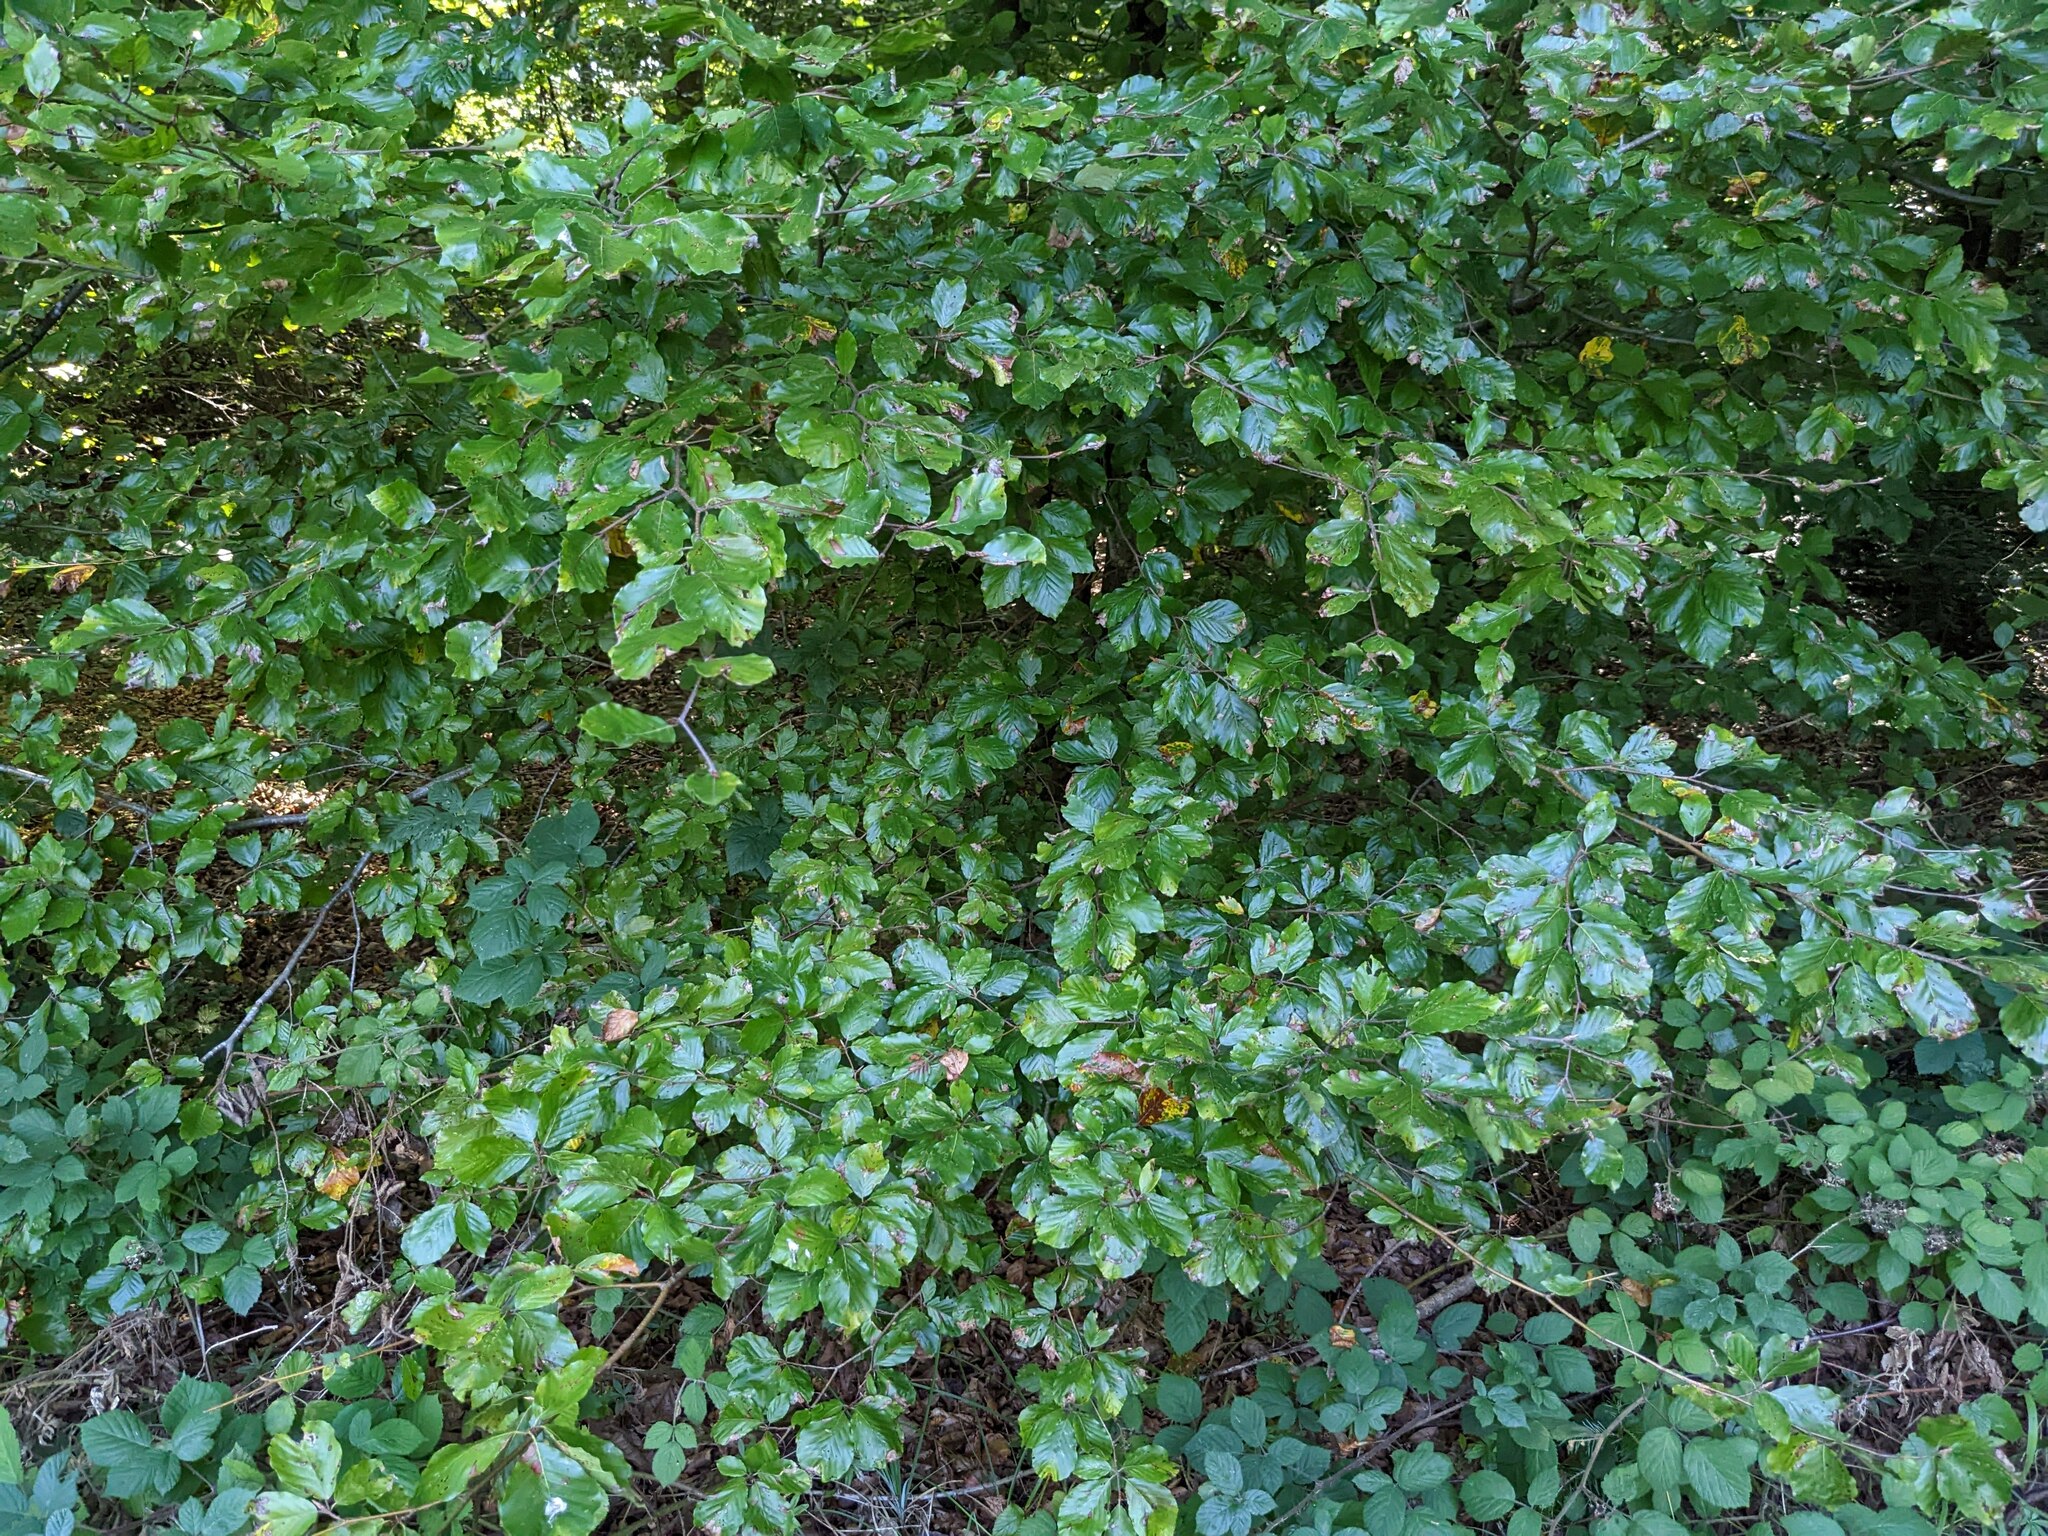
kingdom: Plantae
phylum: Tracheophyta
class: Magnoliopsida
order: Fagales
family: Fagaceae
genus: Fagus
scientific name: Fagus sylvatica
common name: Beech
